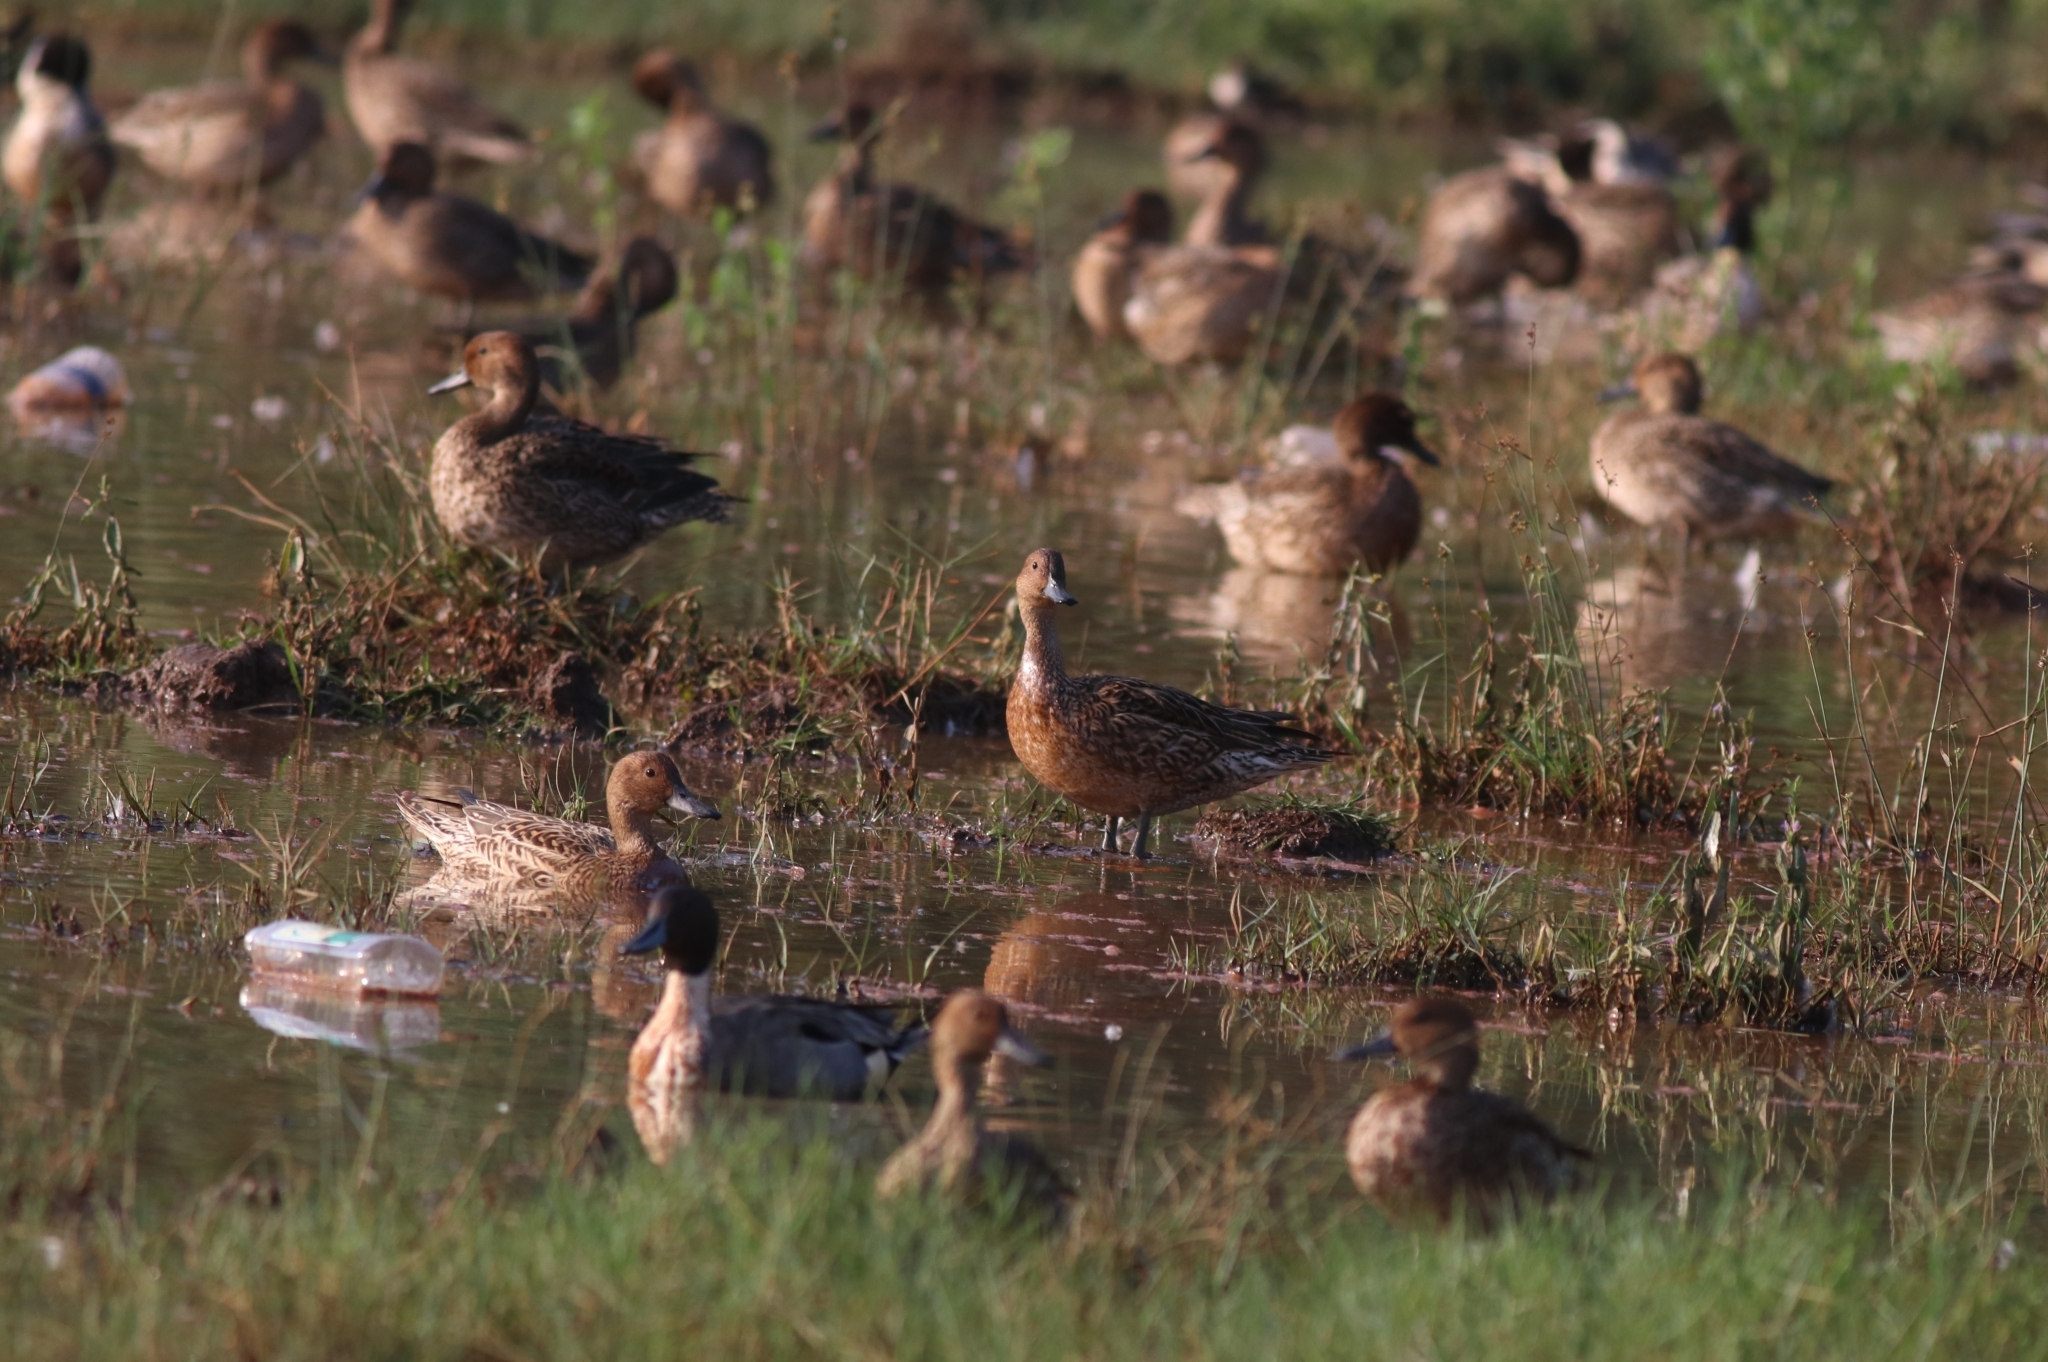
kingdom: Animalia
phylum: Chordata
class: Aves
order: Anseriformes
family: Anatidae
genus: Anas
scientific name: Anas acuta
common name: Northern pintail
